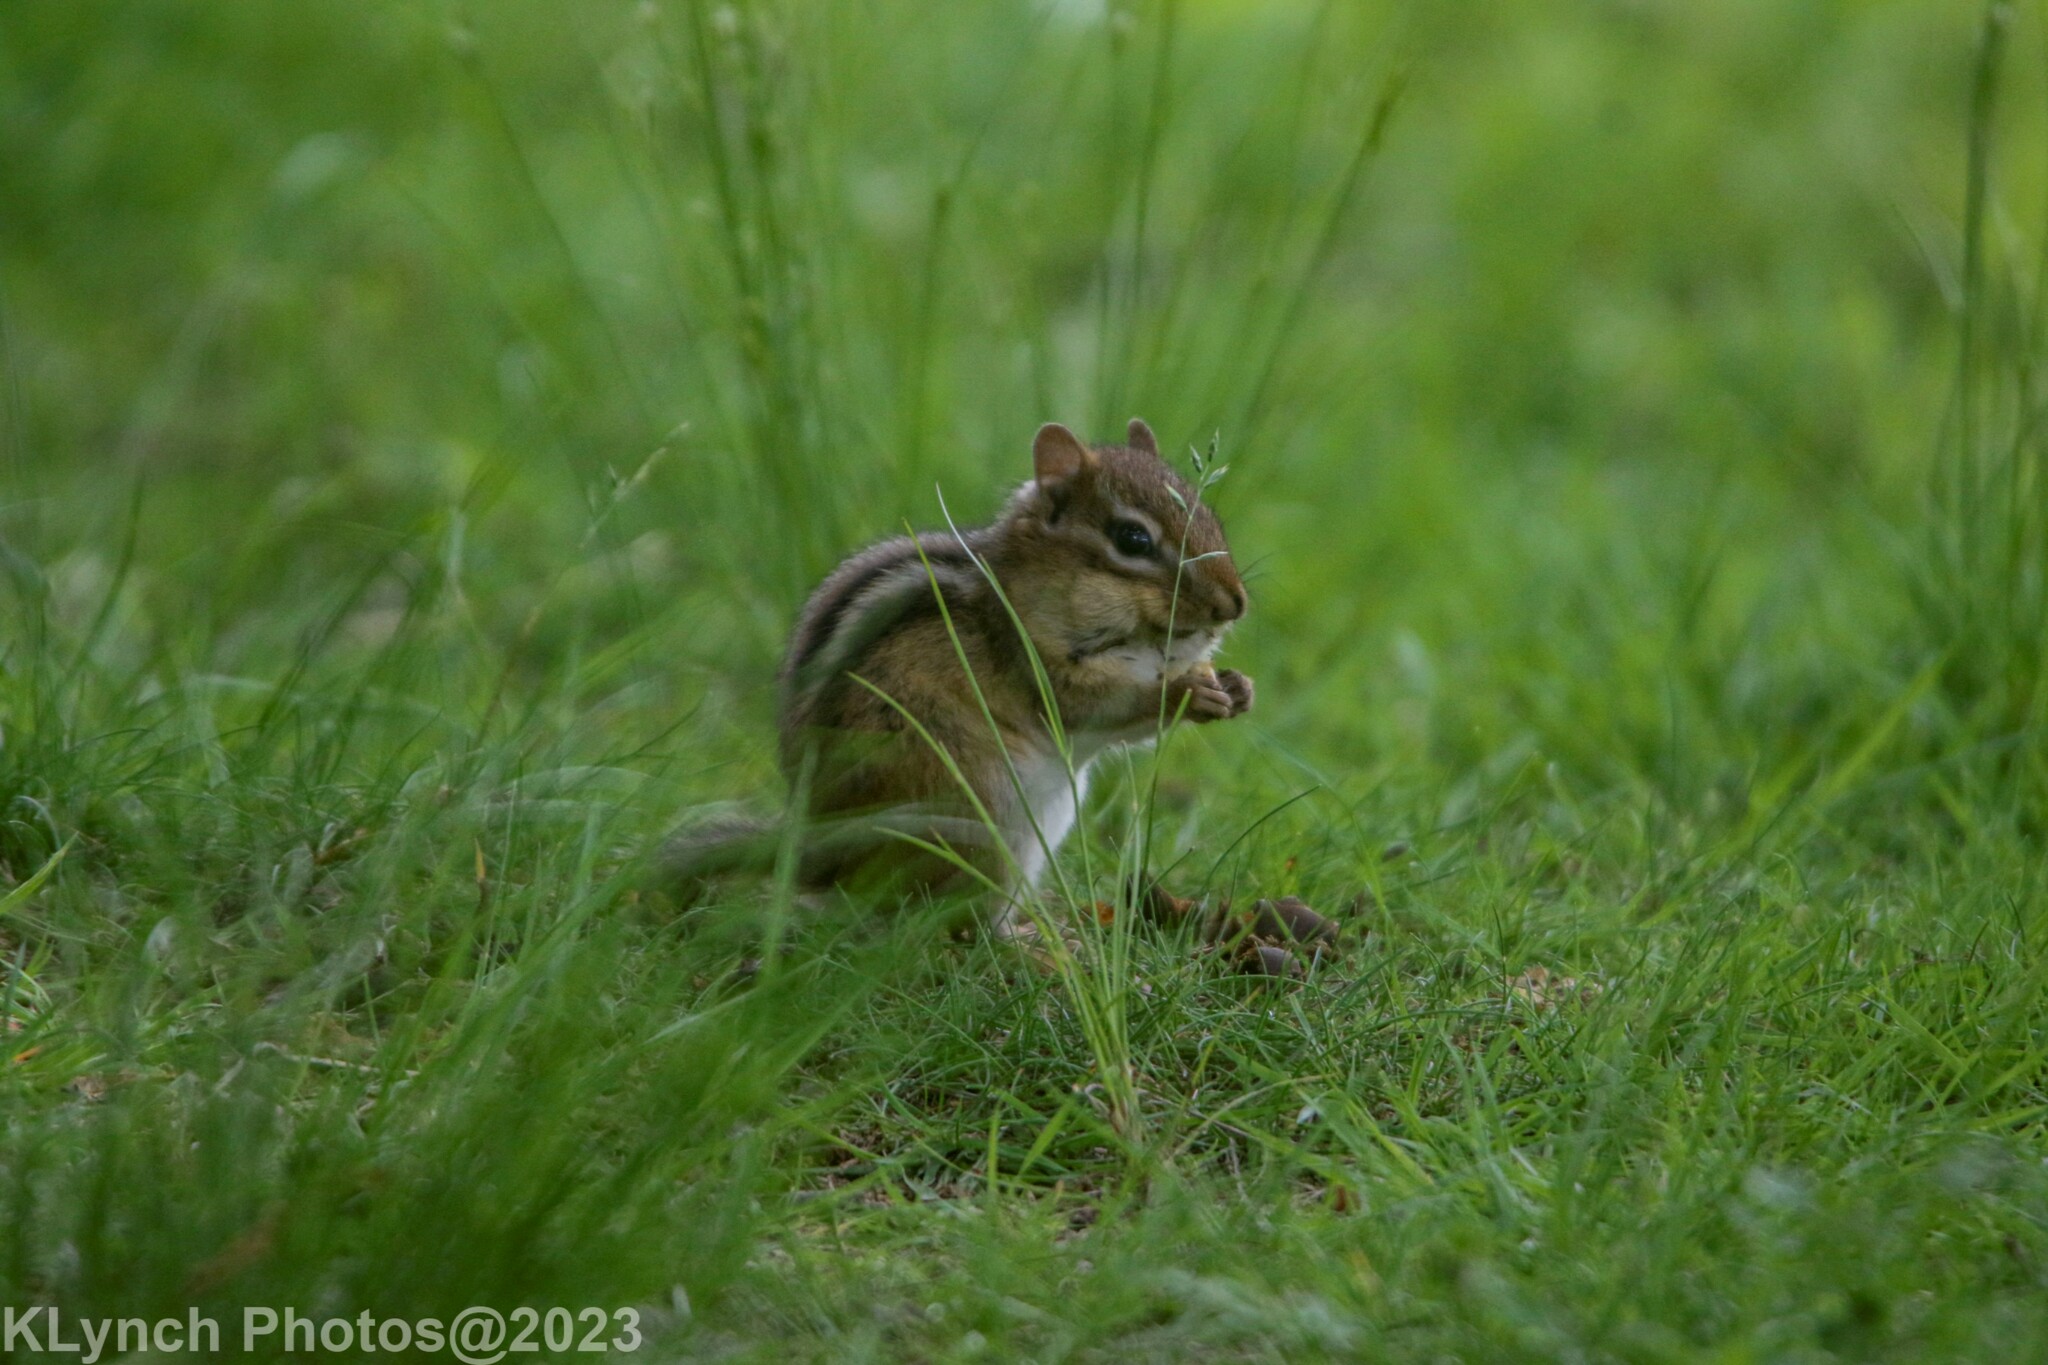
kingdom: Animalia
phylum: Chordata
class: Mammalia
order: Rodentia
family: Sciuridae
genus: Tamias
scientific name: Tamias striatus
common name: Eastern chipmunk
